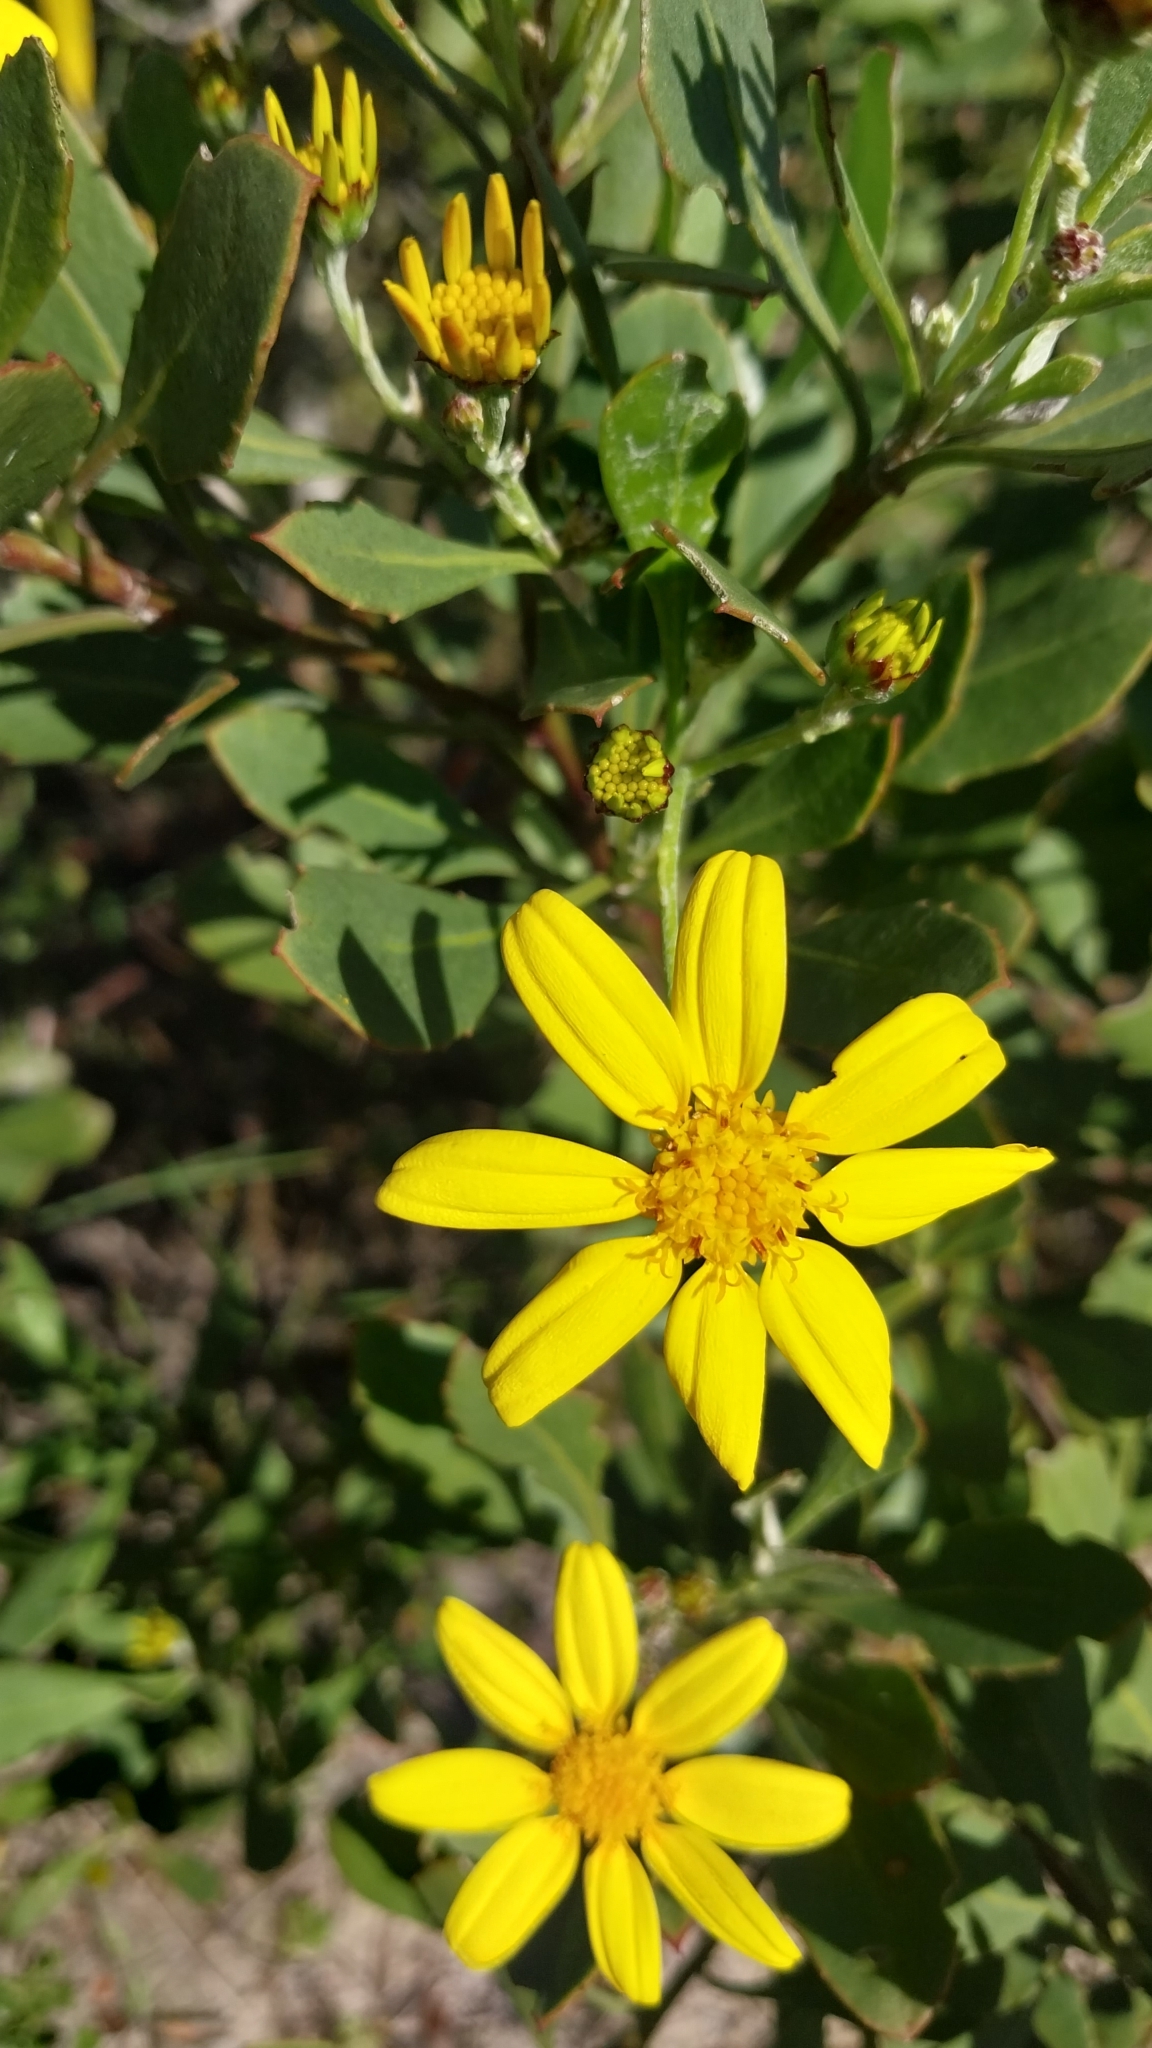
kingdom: Plantae
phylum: Tracheophyta
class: Magnoliopsida
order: Asterales
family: Asteraceae
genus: Osteospermum
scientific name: Osteospermum moniliferum
